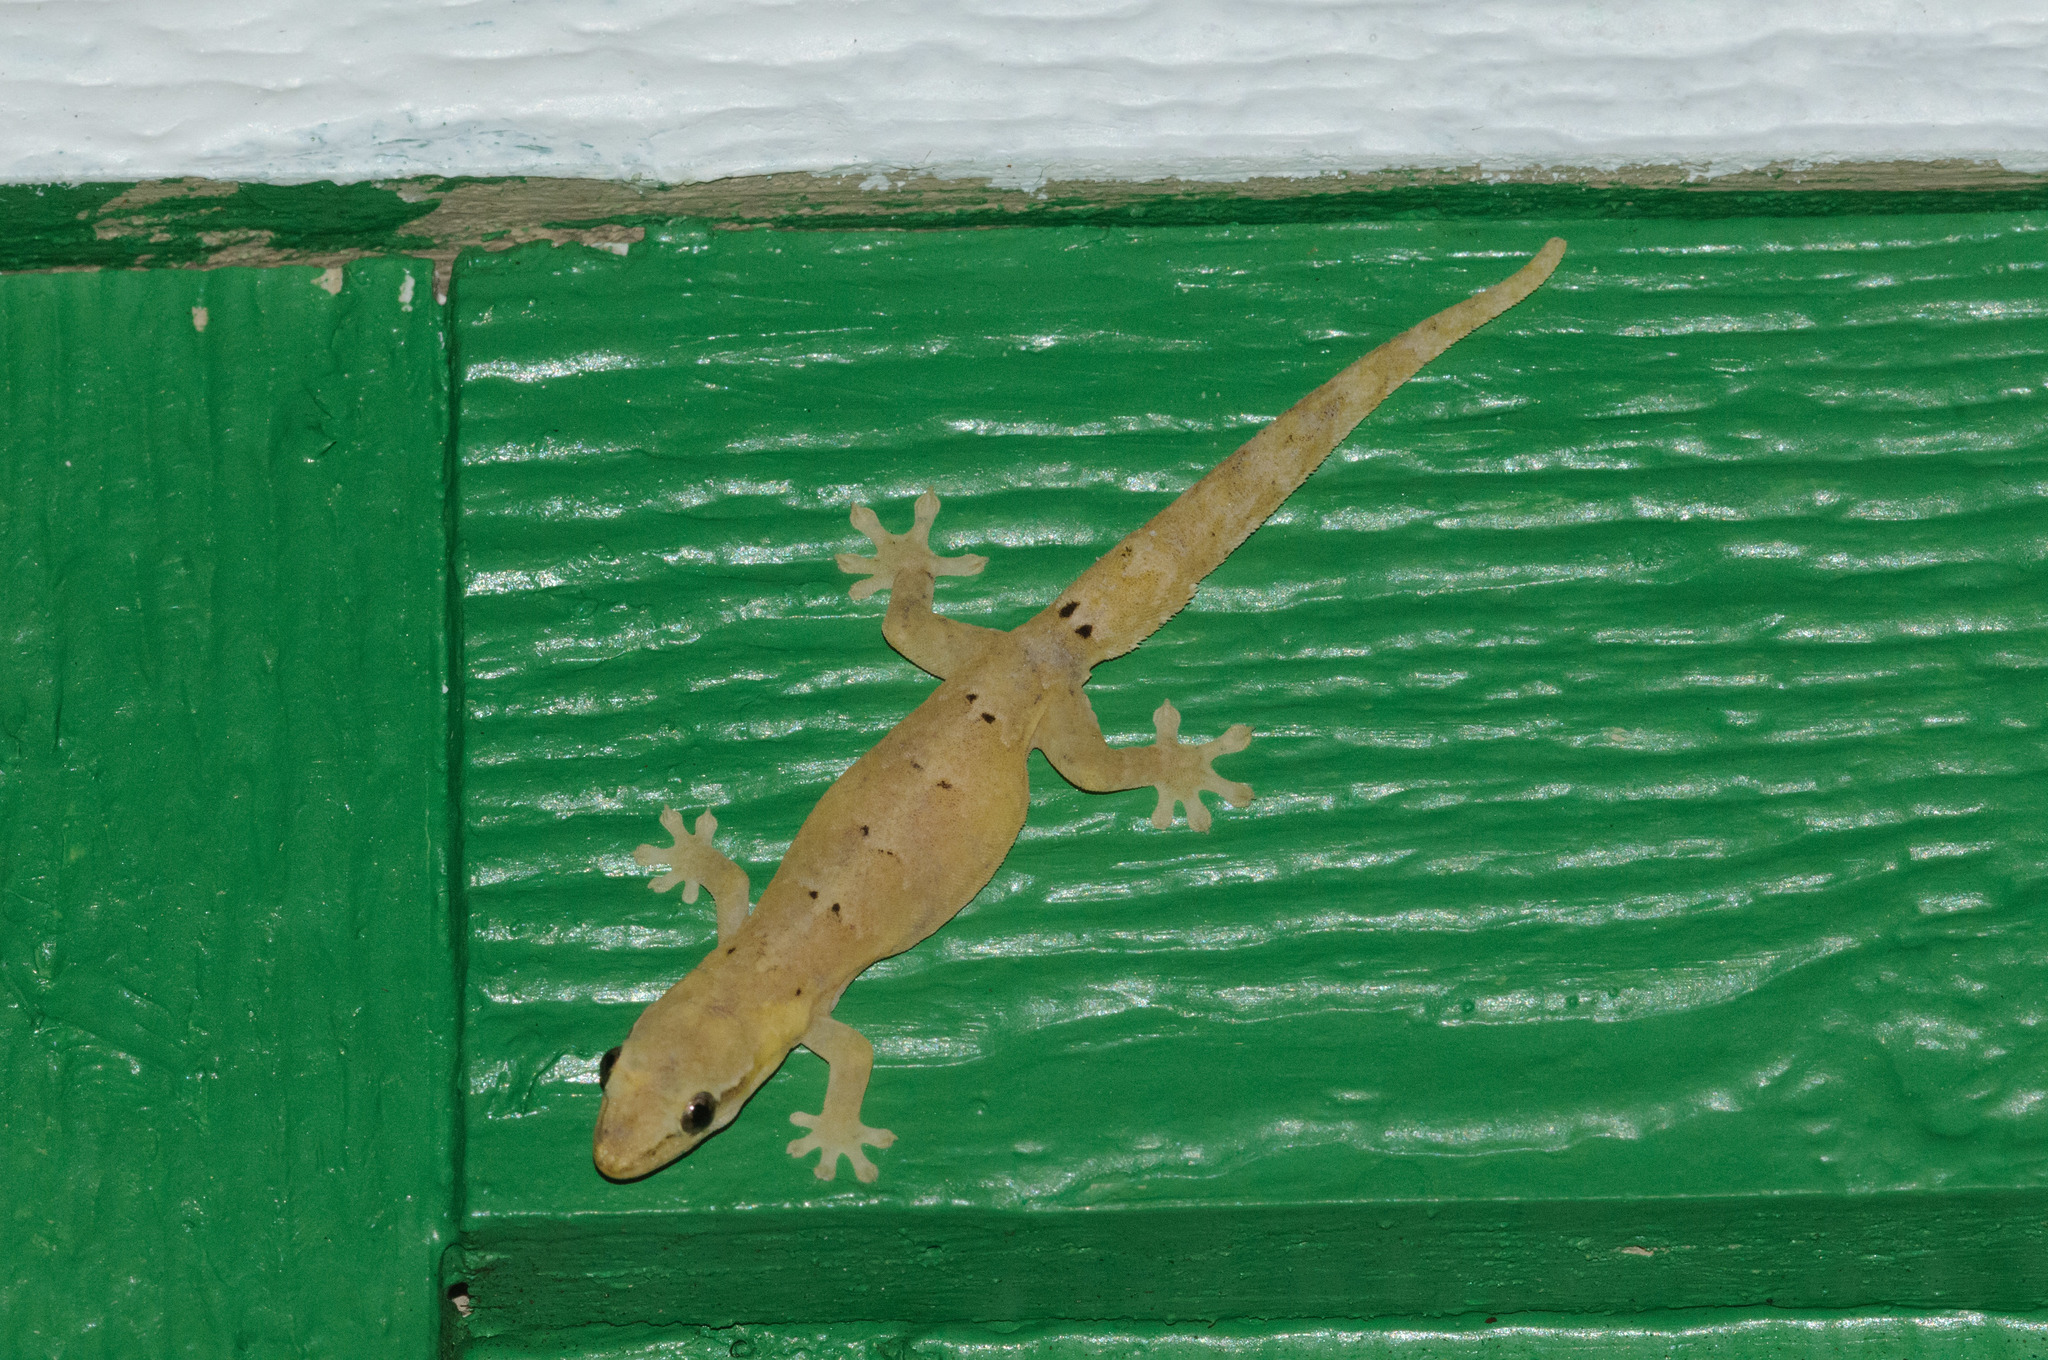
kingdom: Animalia
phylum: Chordata
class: Squamata
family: Gekkonidae
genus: Lepidodactylus
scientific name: Lepidodactylus lugubris
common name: Mourning gecko
